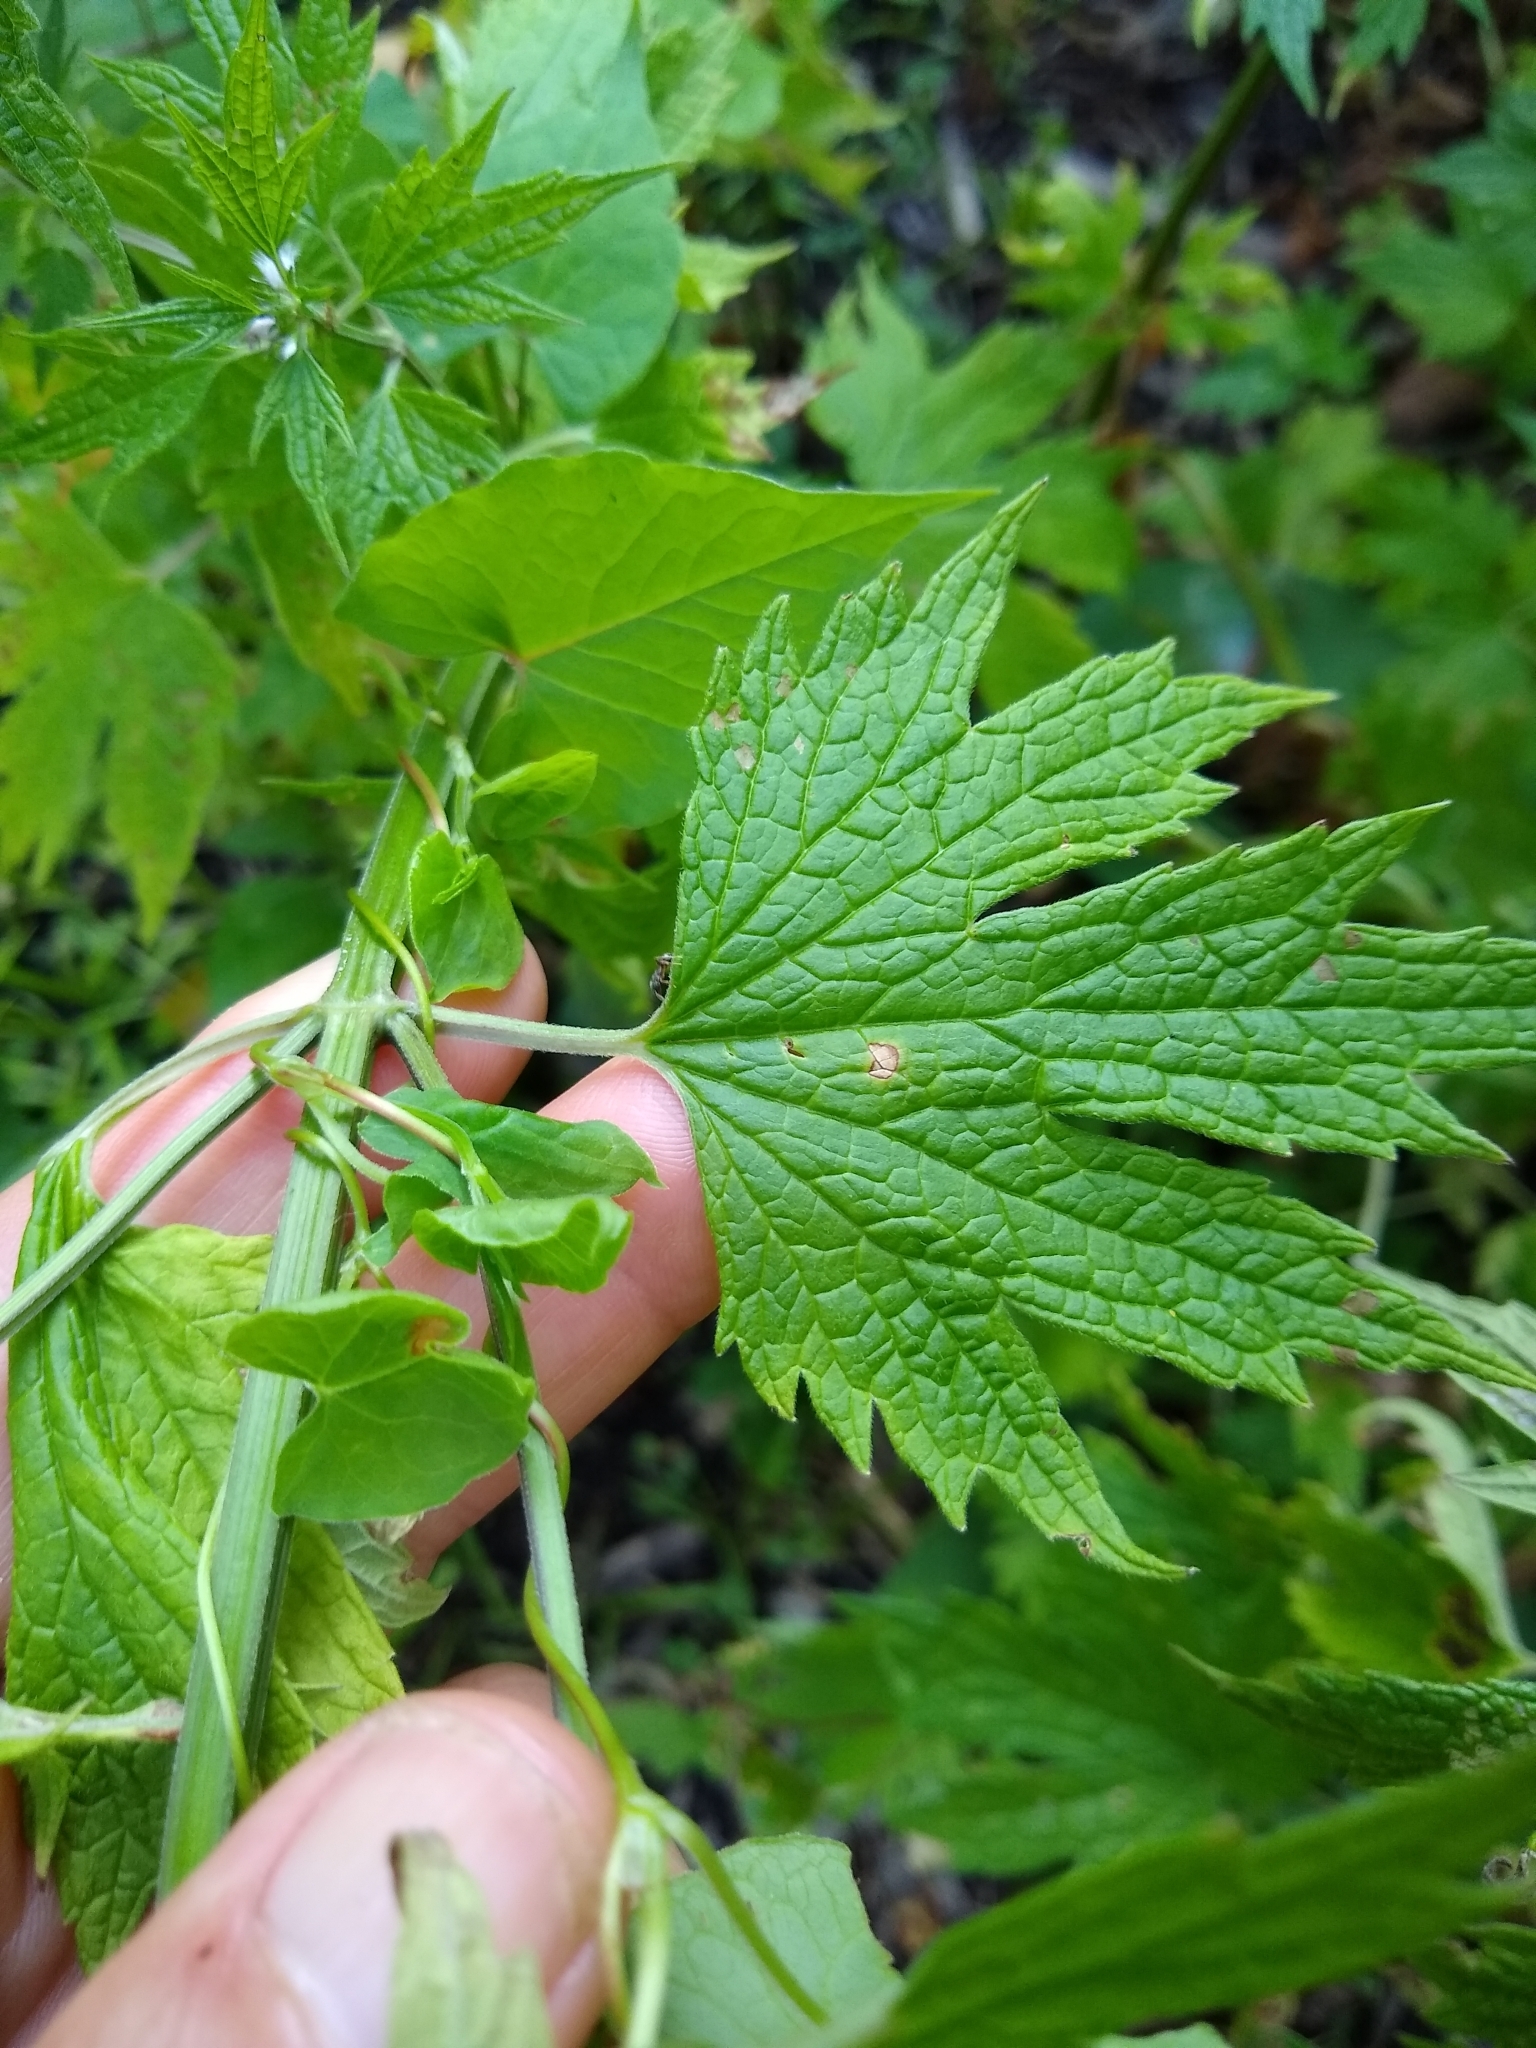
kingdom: Plantae
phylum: Tracheophyta
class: Magnoliopsida
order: Lamiales
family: Lamiaceae
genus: Leonurus
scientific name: Leonurus cardiaca
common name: Motherwort
